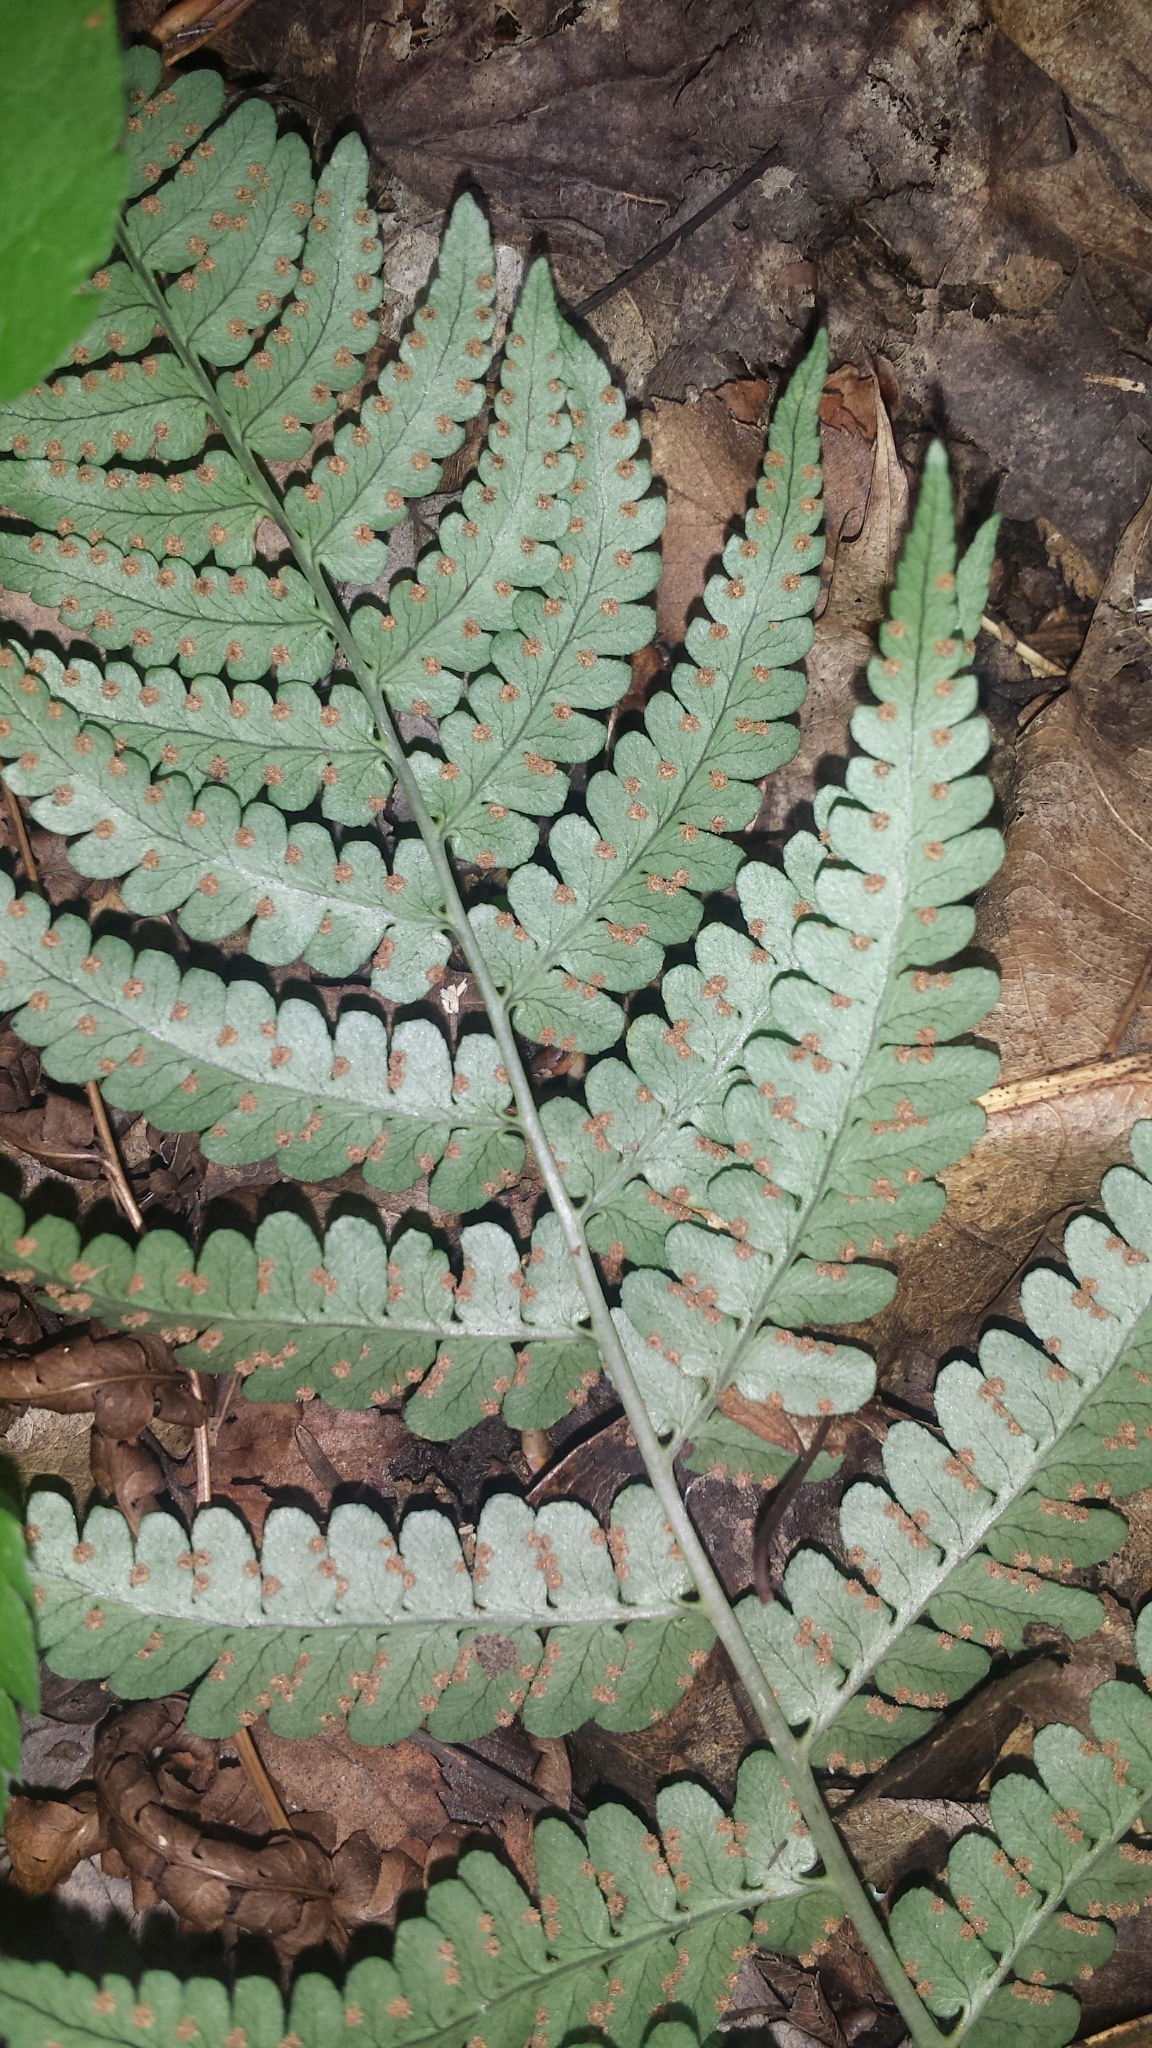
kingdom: Plantae
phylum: Tracheophyta
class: Polypodiopsida
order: Polypodiales
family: Dryopteridaceae
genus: Dryopteris
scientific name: Dryopteris marginalis
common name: Marginal wood fern
